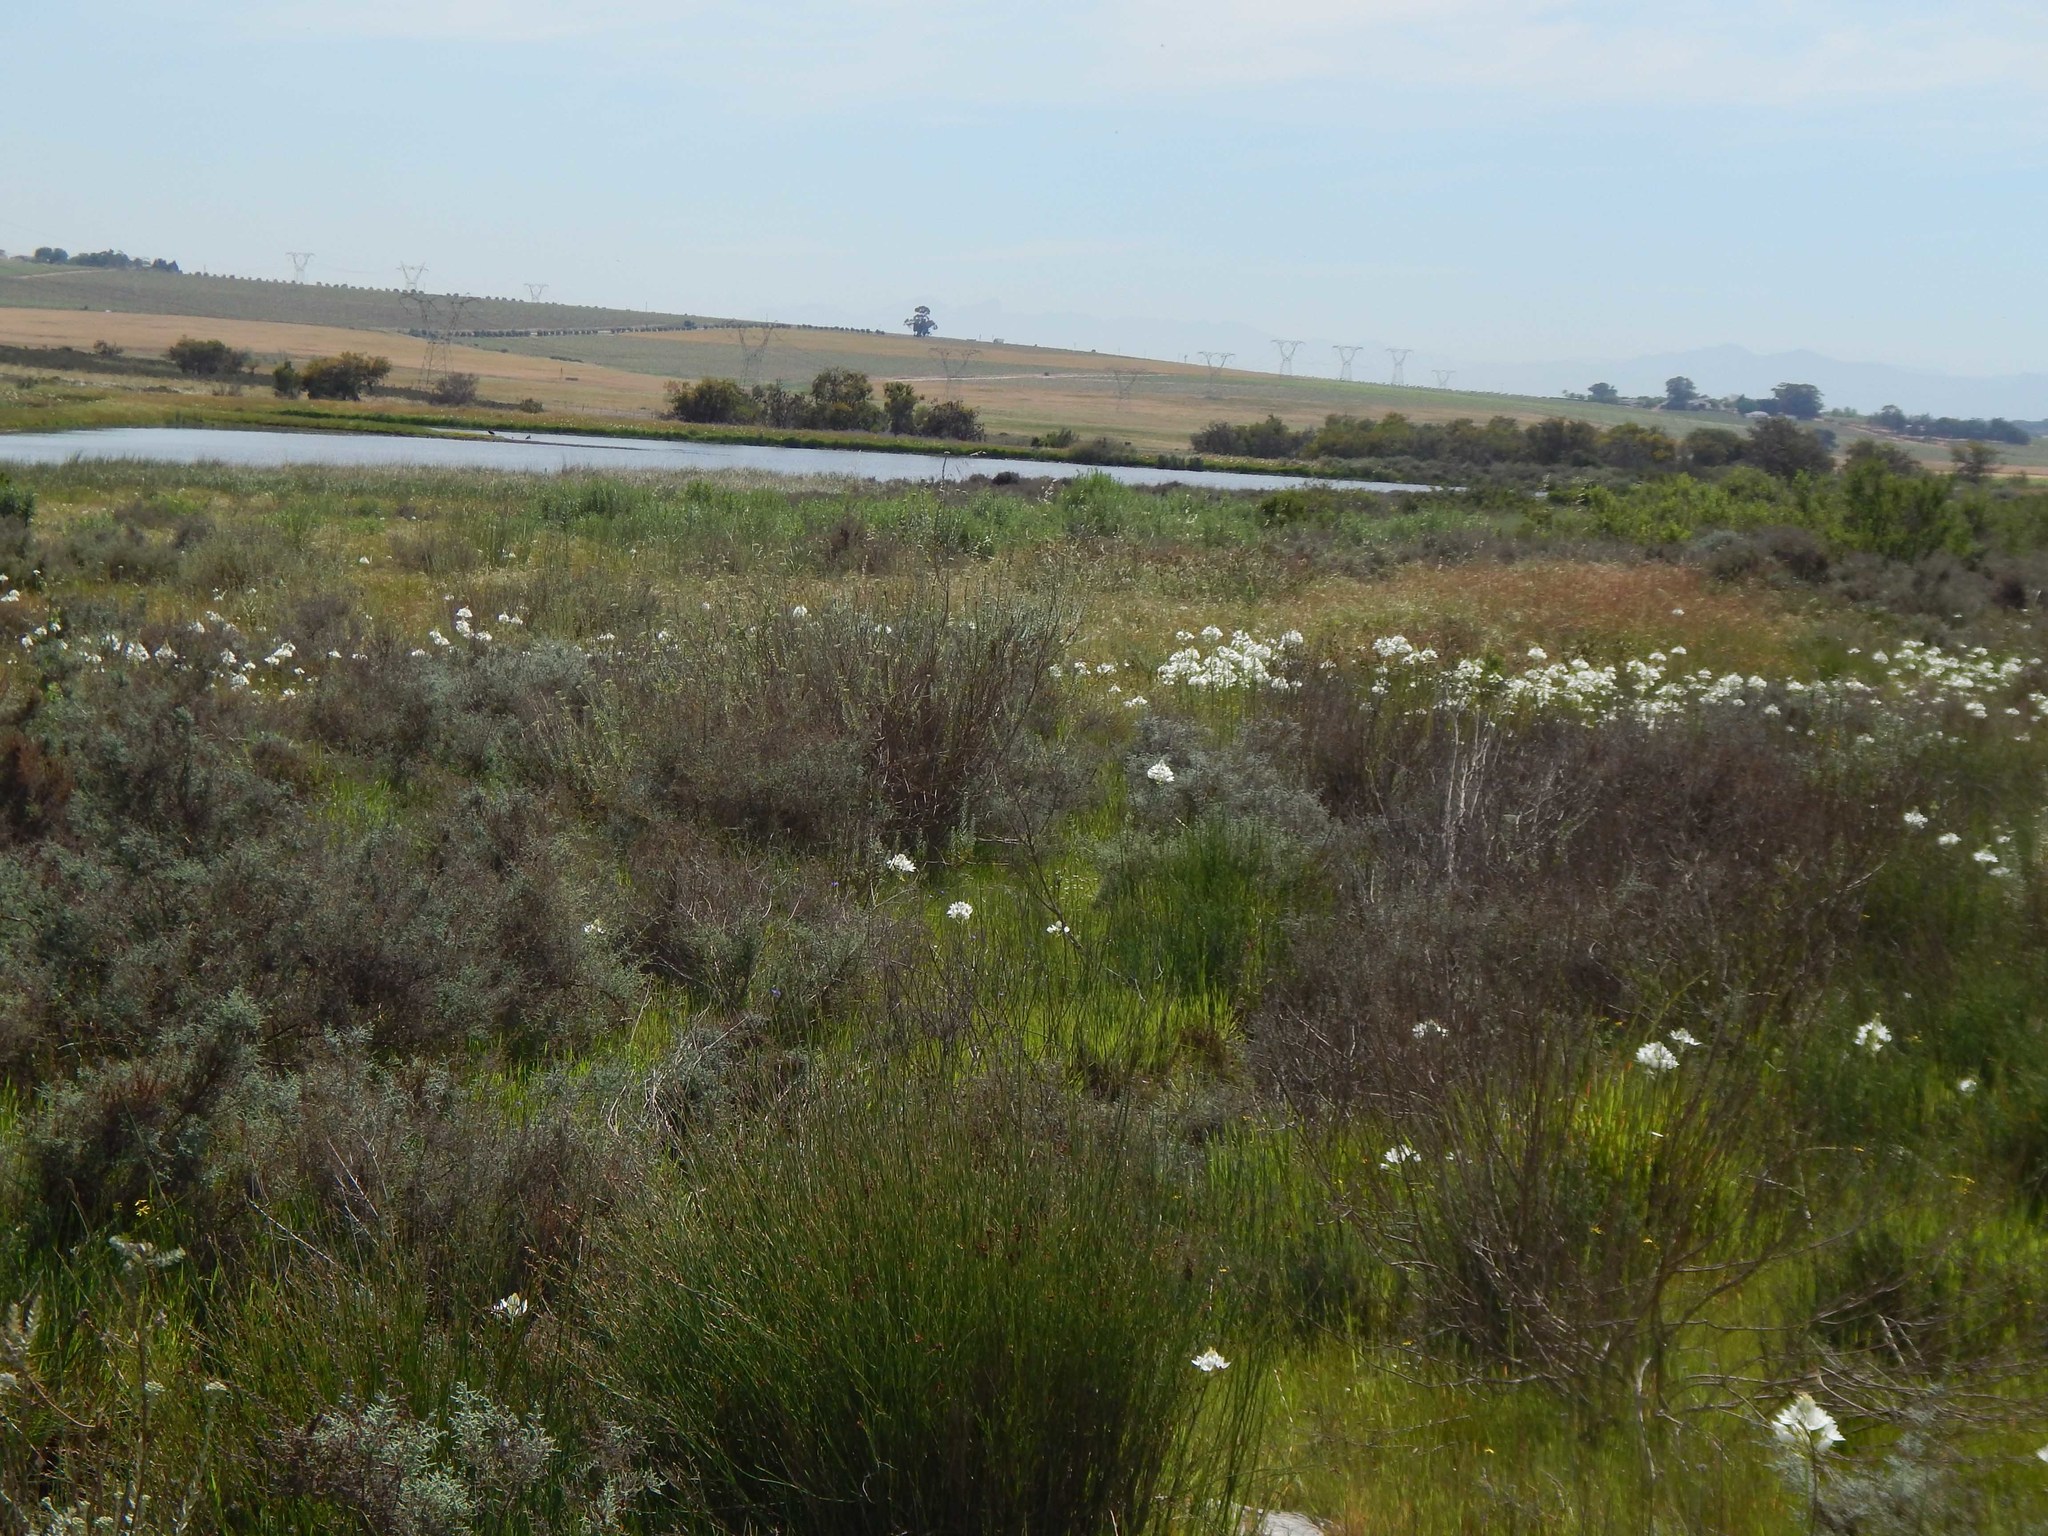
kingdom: Plantae
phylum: Tracheophyta
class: Liliopsida
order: Poales
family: Juncaceae
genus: Juncus
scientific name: Juncus cephalotes
